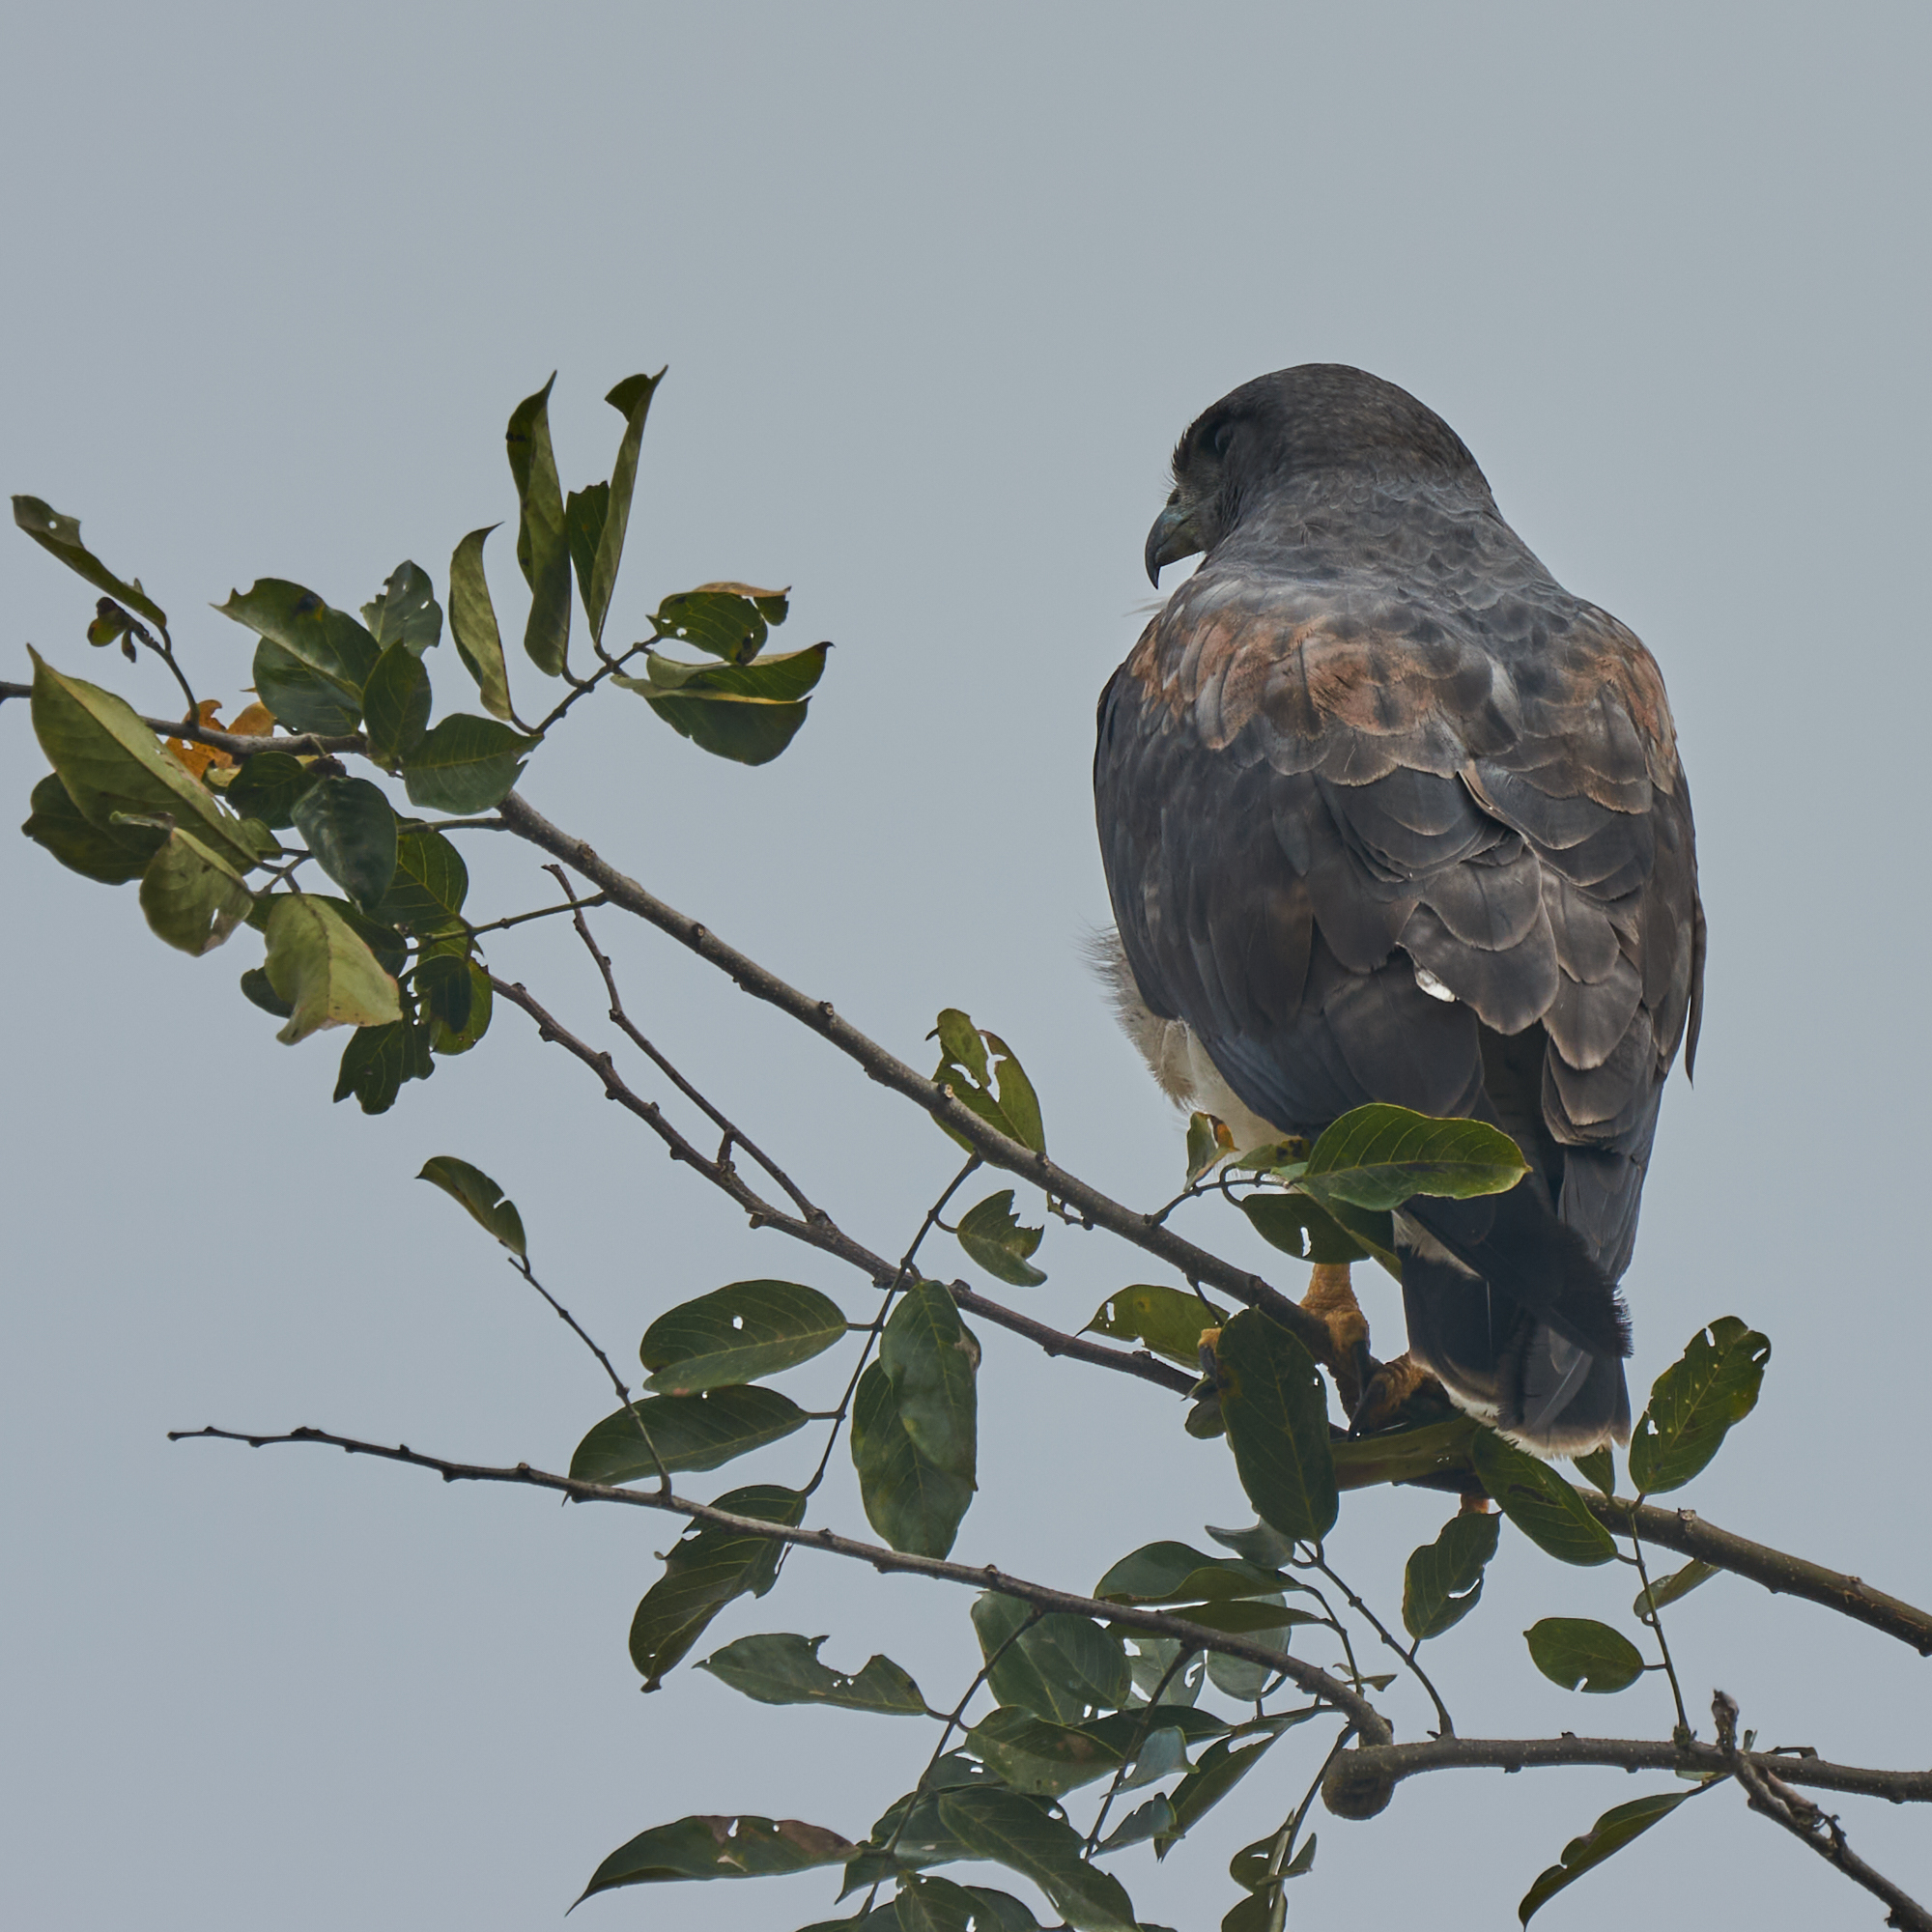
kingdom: Animalia
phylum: Chordata
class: Aves
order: Accipitriformes
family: Accipitridae
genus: Buteo
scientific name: Buteo albicaudatus
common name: White-tailed hawk
